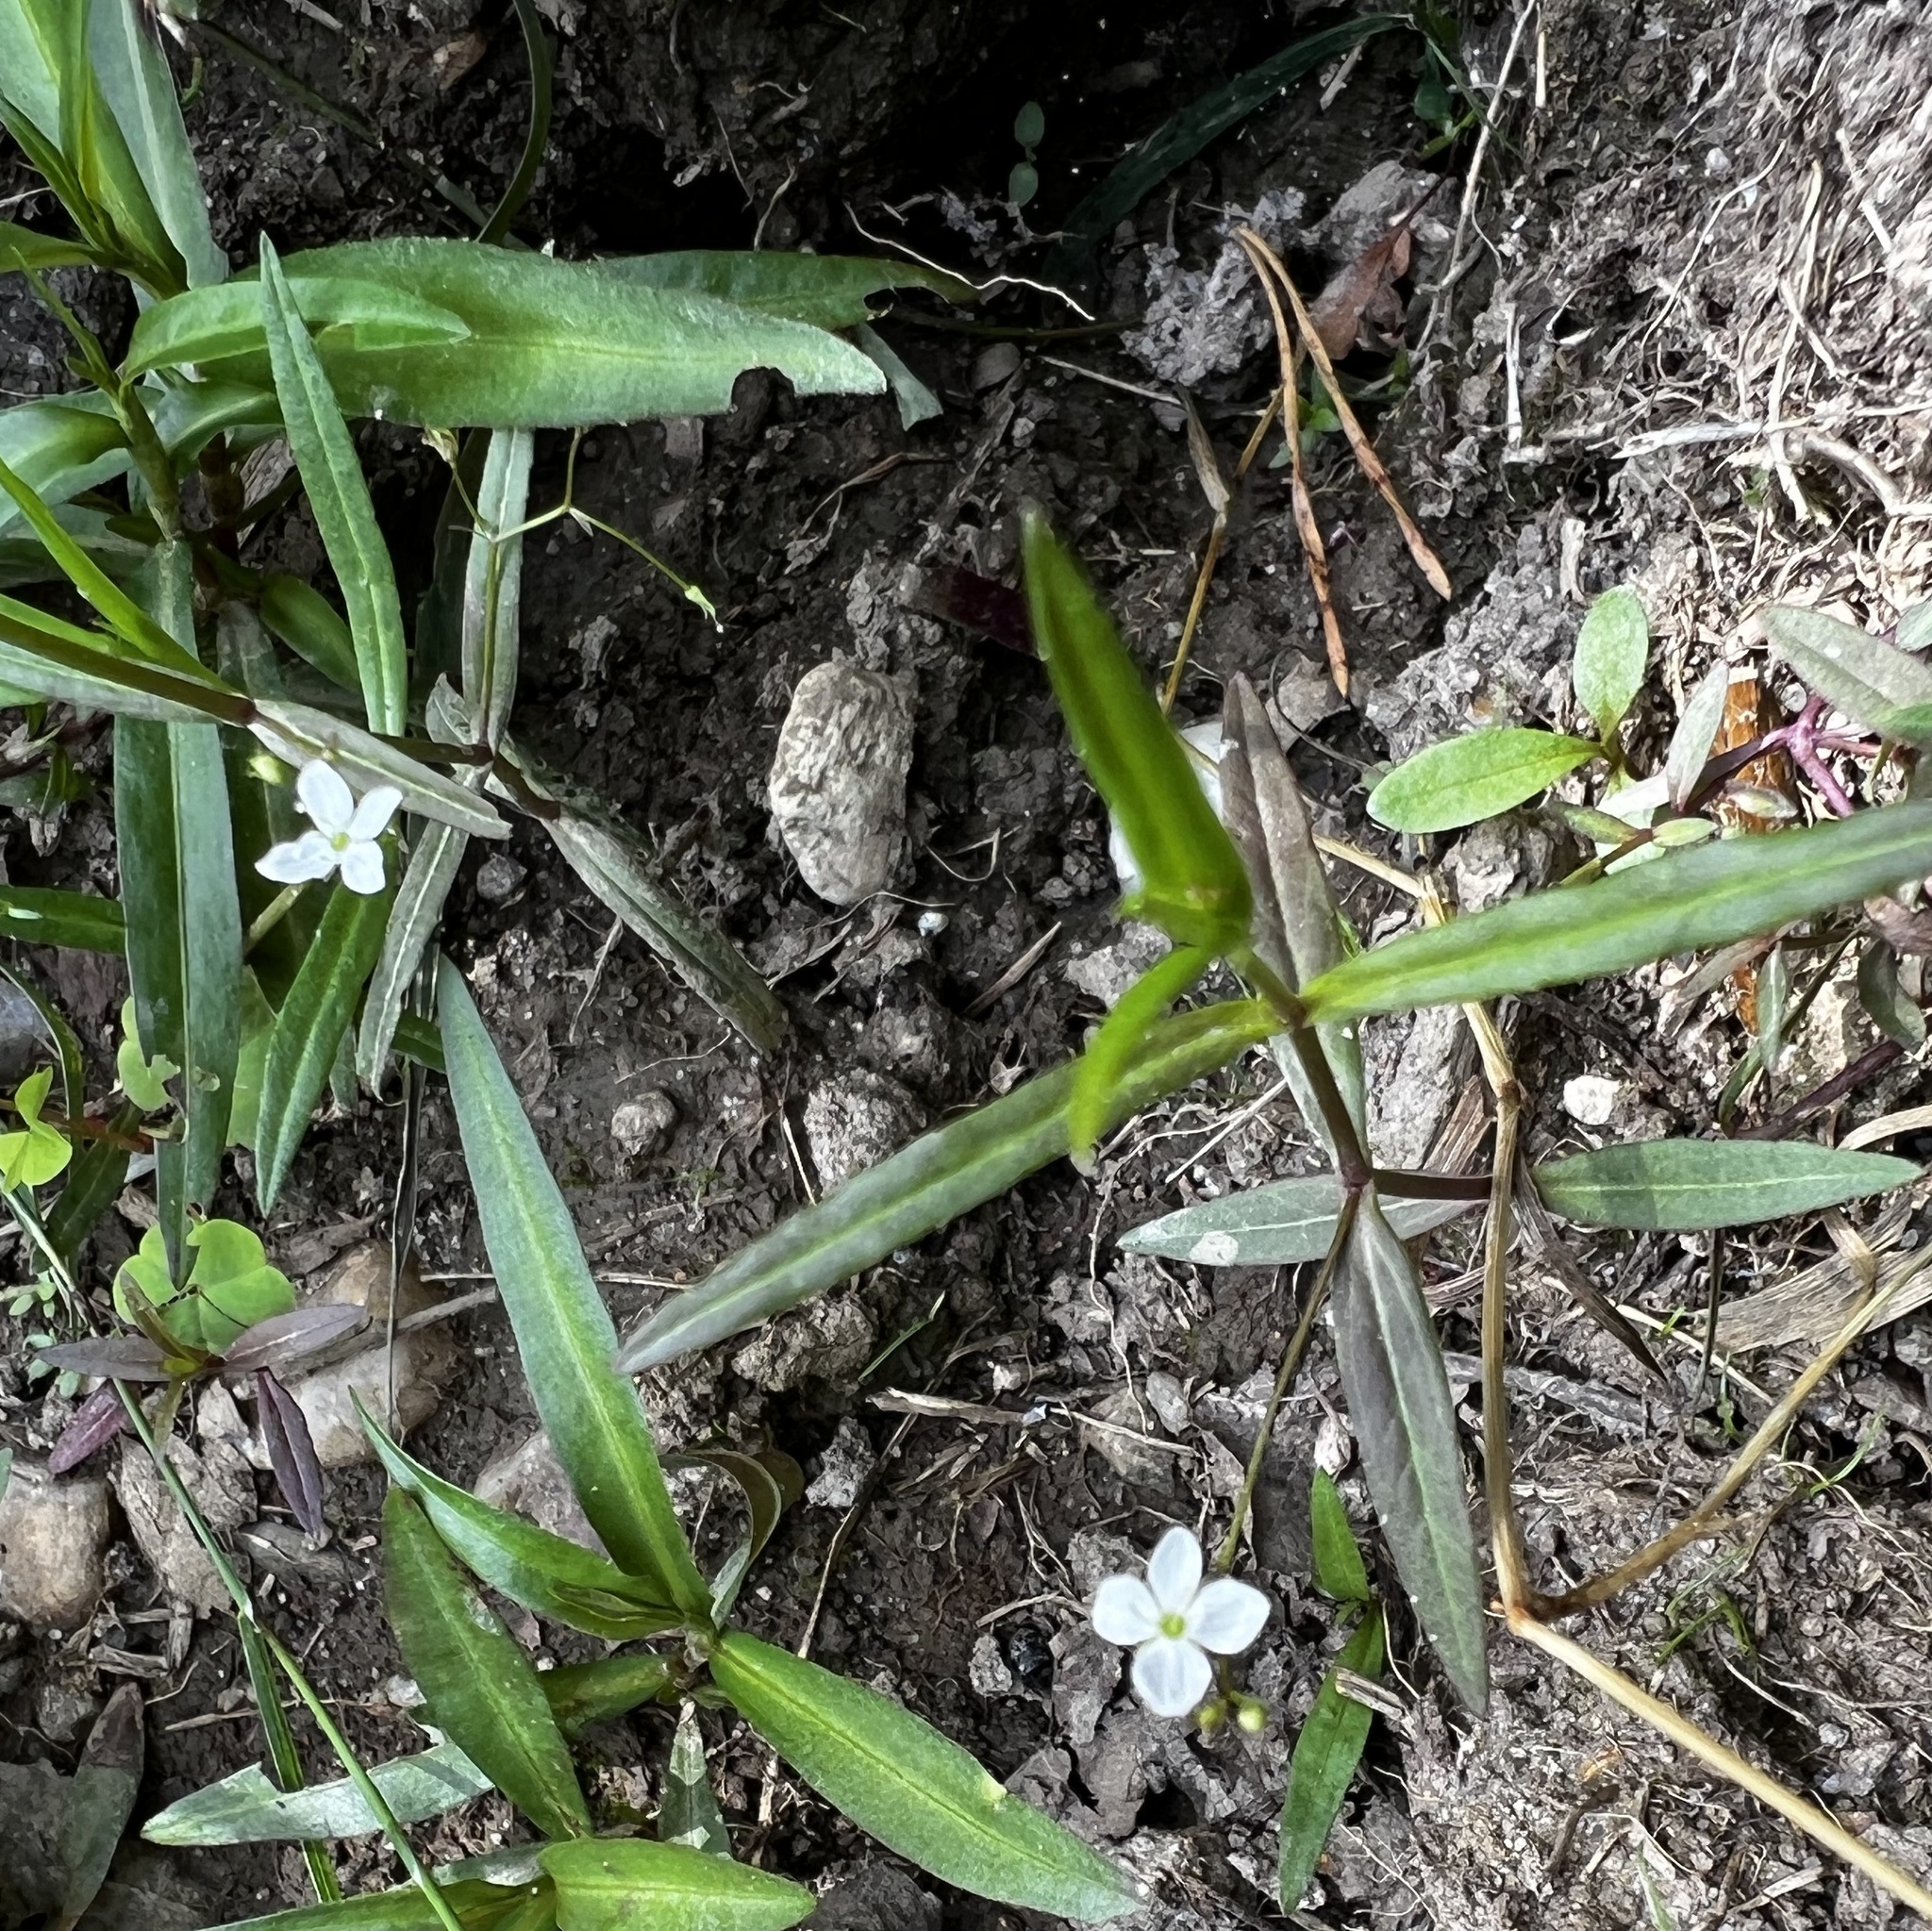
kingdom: Plantae
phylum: Tracheophyta
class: Magnoliopsida
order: Lamiales
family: Plantaginaceae
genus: Veronica
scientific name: Veronica scutellata
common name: Marsh speedwell
